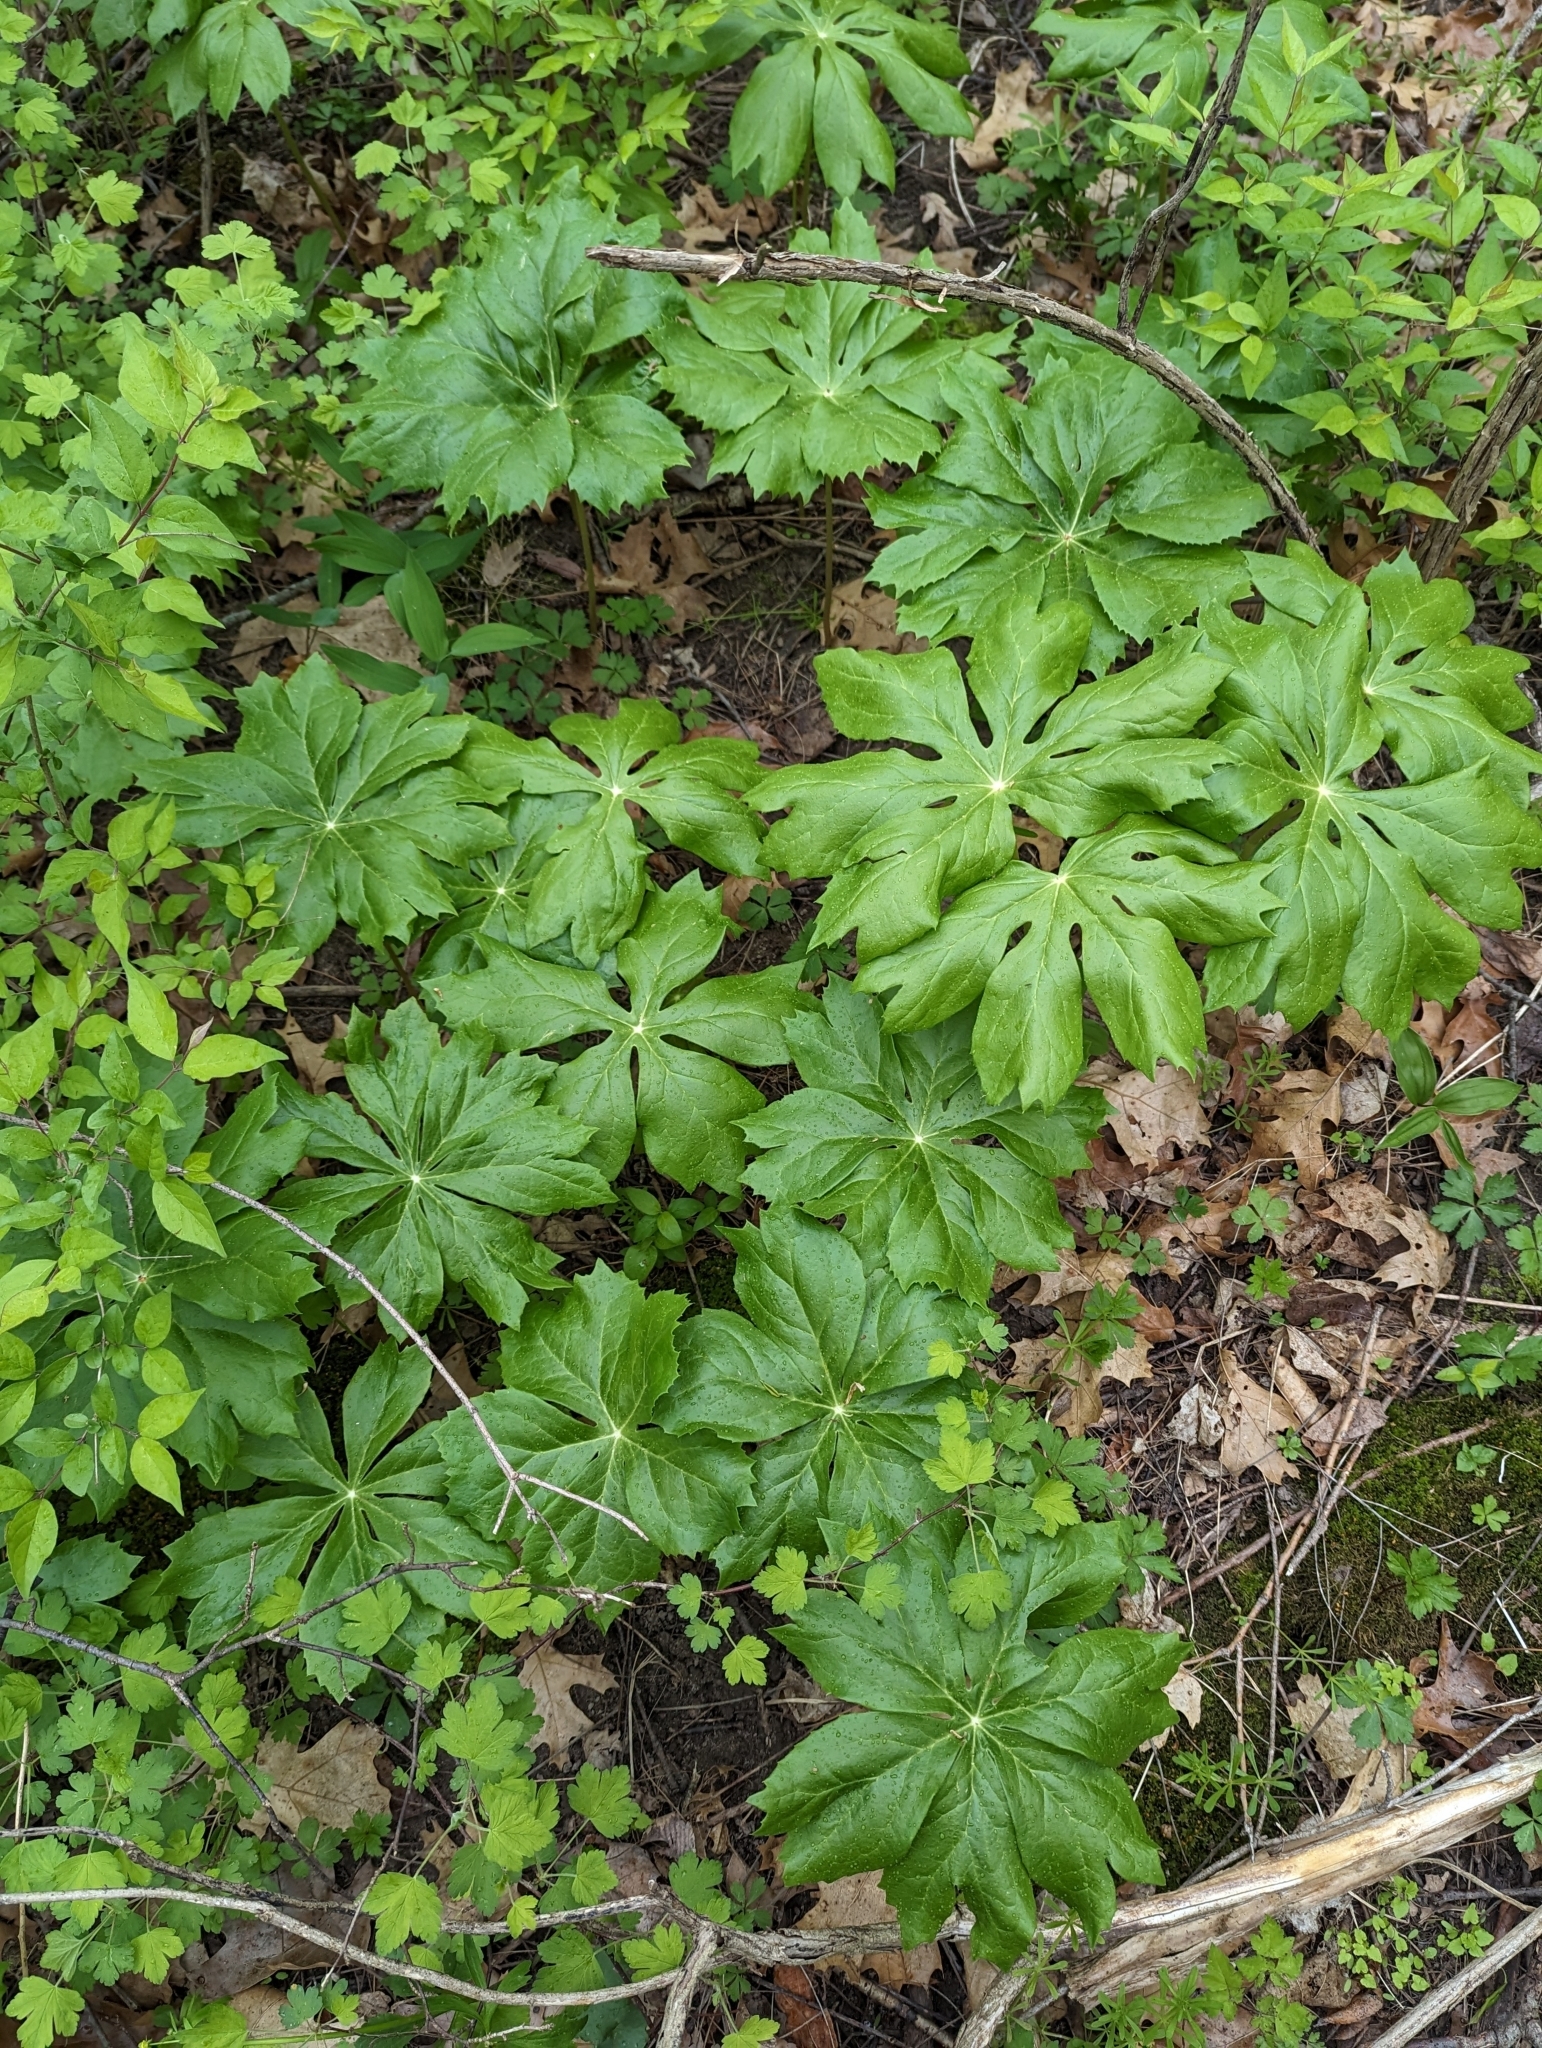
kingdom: Plantae
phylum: Tracheophyta
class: Magnoliopsida
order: Ranunculales
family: Berberidaceae
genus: Podophyllum
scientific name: Podophyllum peltatum
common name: Wild mandrake
